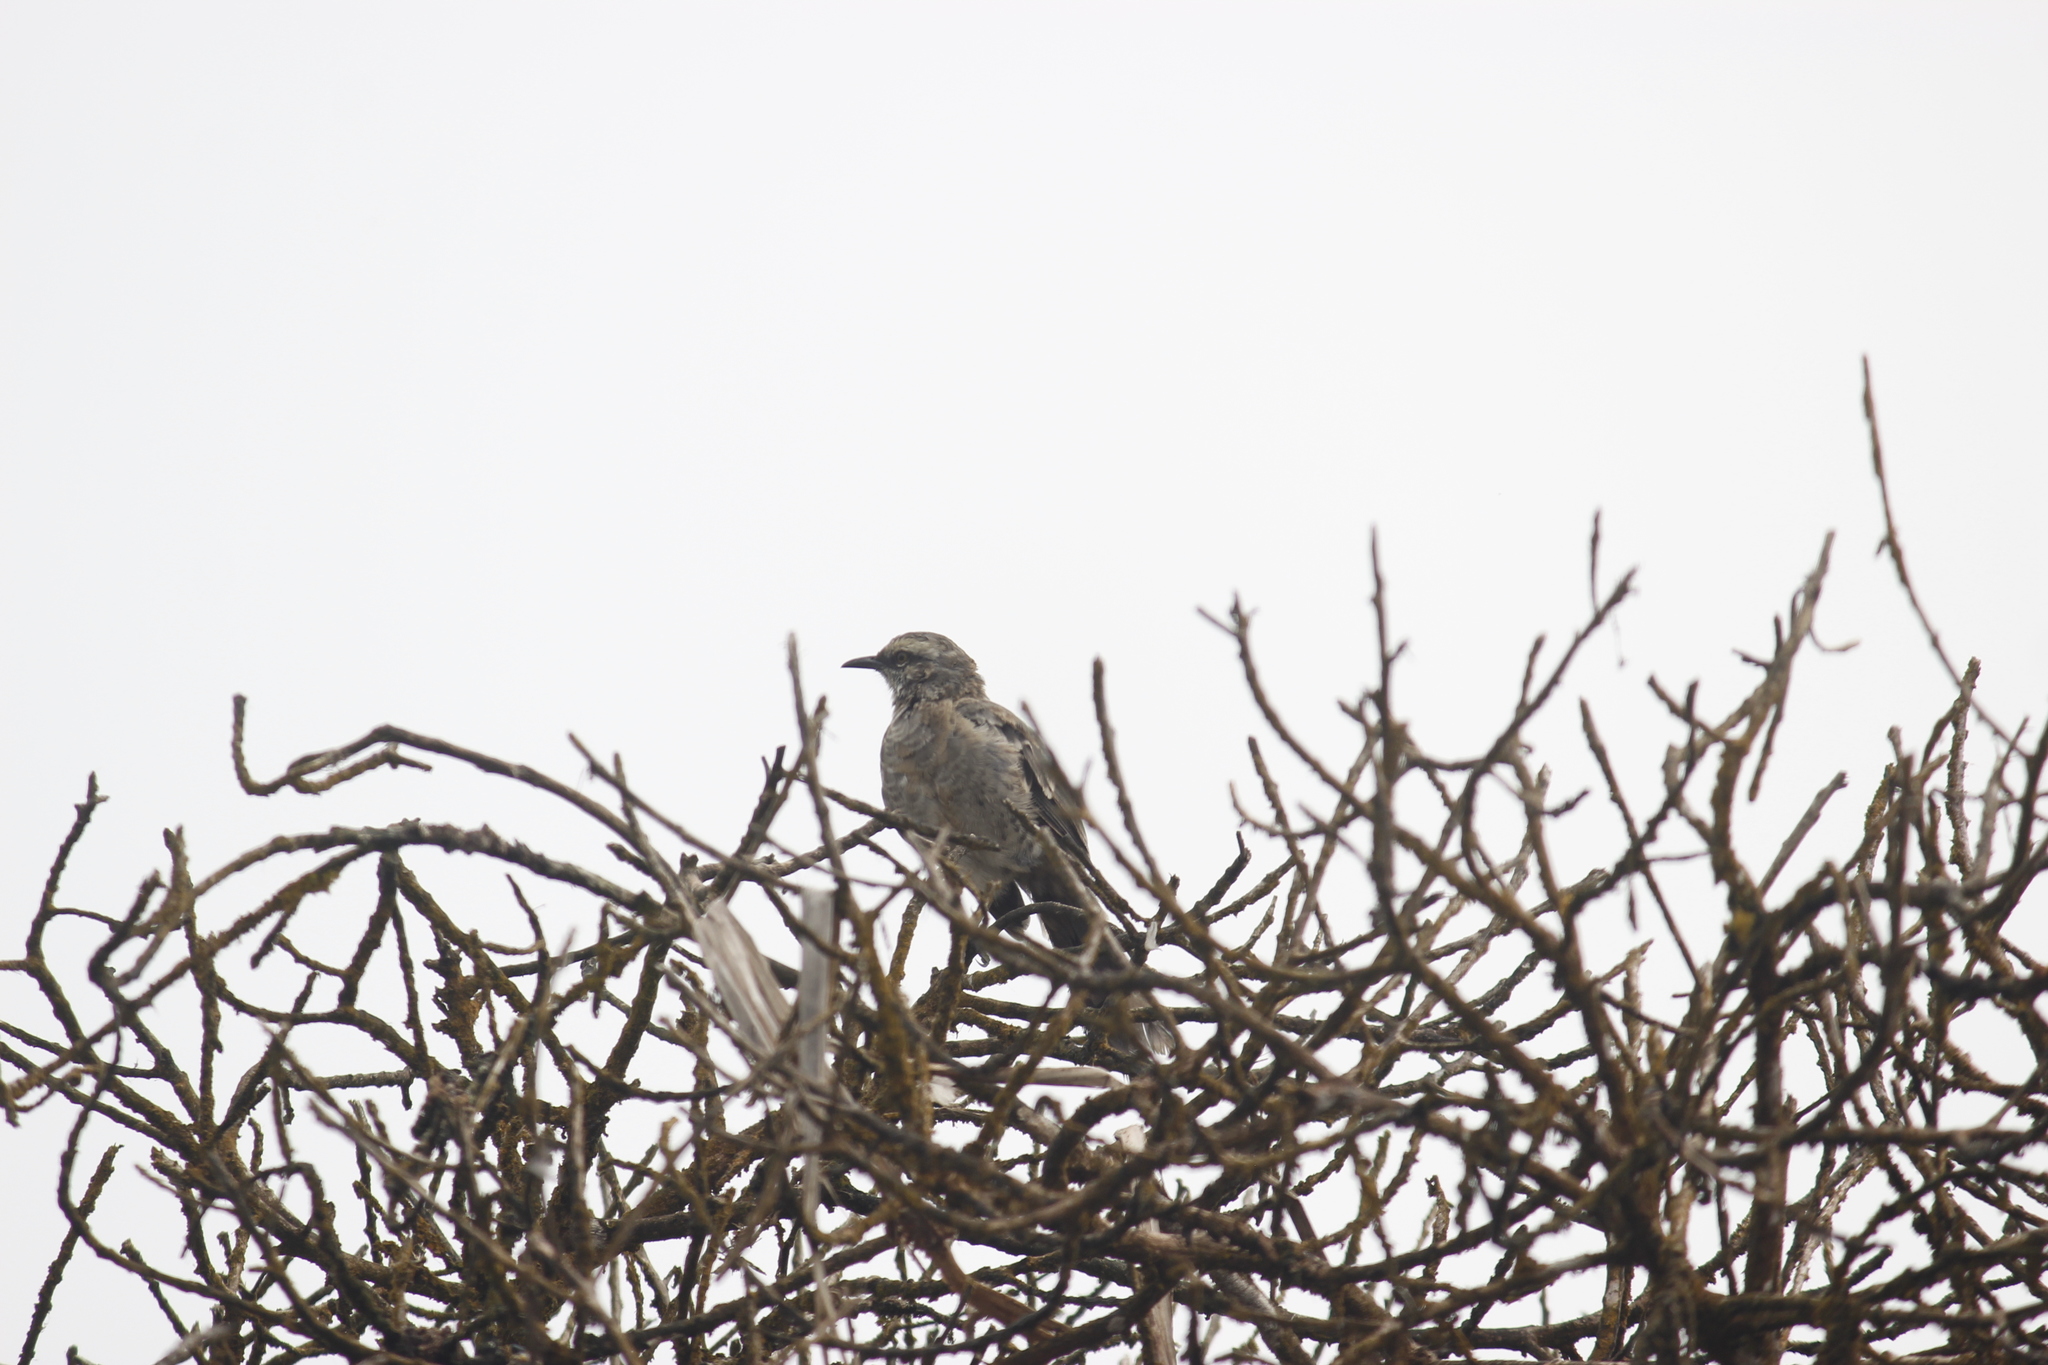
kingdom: Animalia
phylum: Chordata
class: Aves
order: Passeriformes
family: Mimidae
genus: Mimus
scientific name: Mimus longicaudatus
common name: Long-tailed mockingbird
